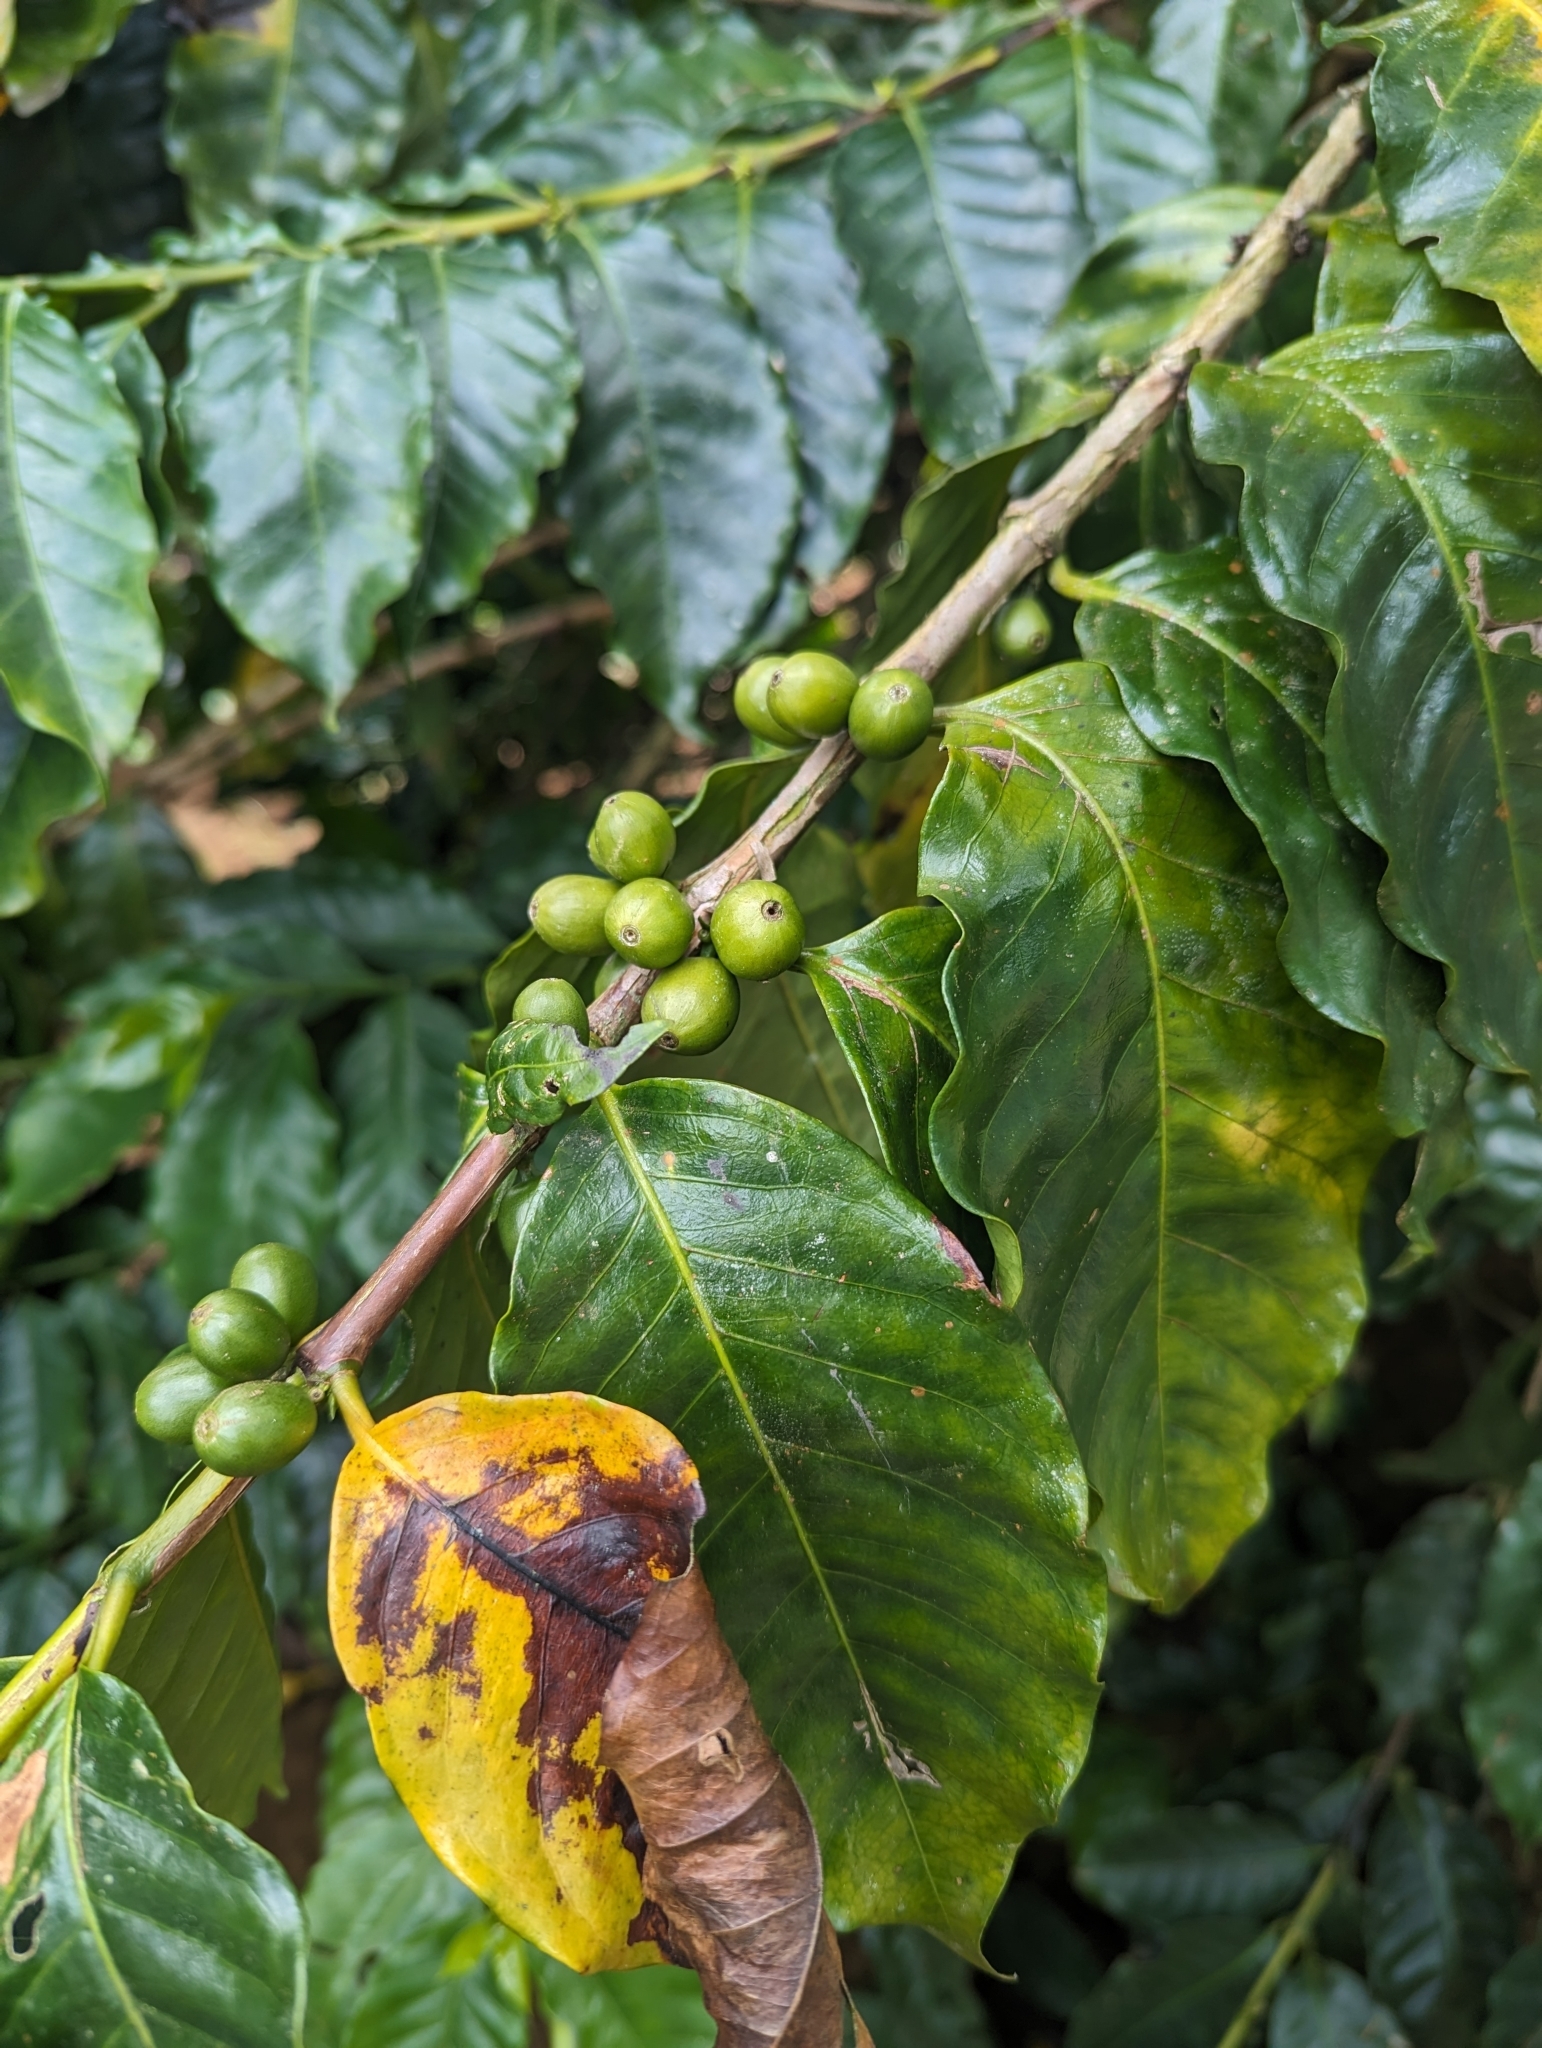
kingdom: Plantae
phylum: Tracheophyta
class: Magnoliopsida
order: Gentianales
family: Rubiaceae
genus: Coffea
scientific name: Coffea arabica
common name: Coffee
